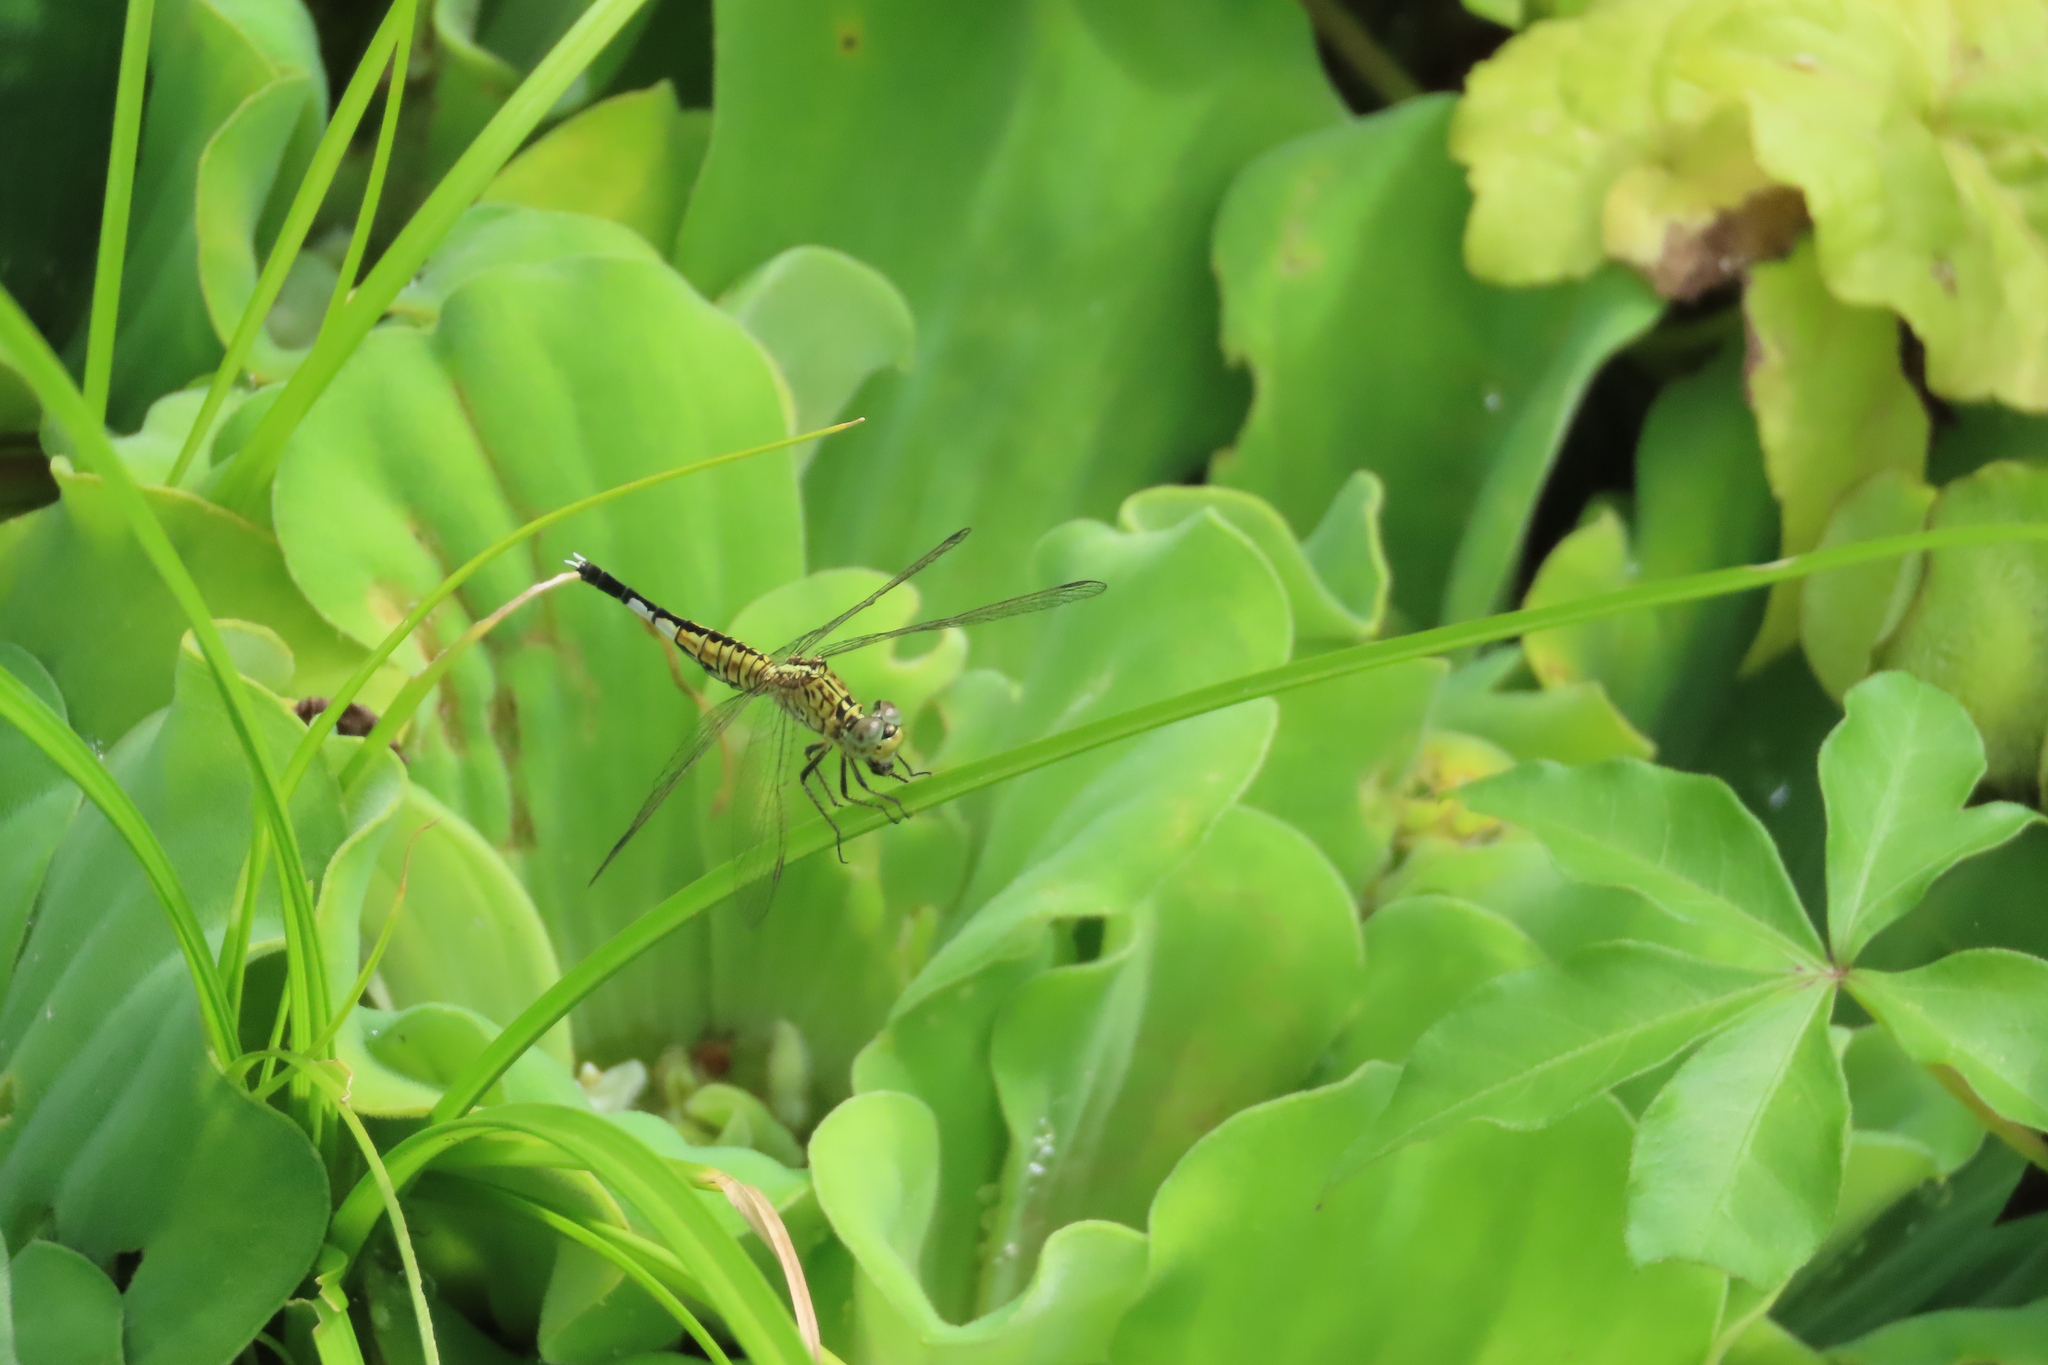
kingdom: Animalia
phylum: Arthropoda
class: Insecta
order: Odonata
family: Libellulidae
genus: Acisoma
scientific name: Acisoma panorpoides
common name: Asian pintail
